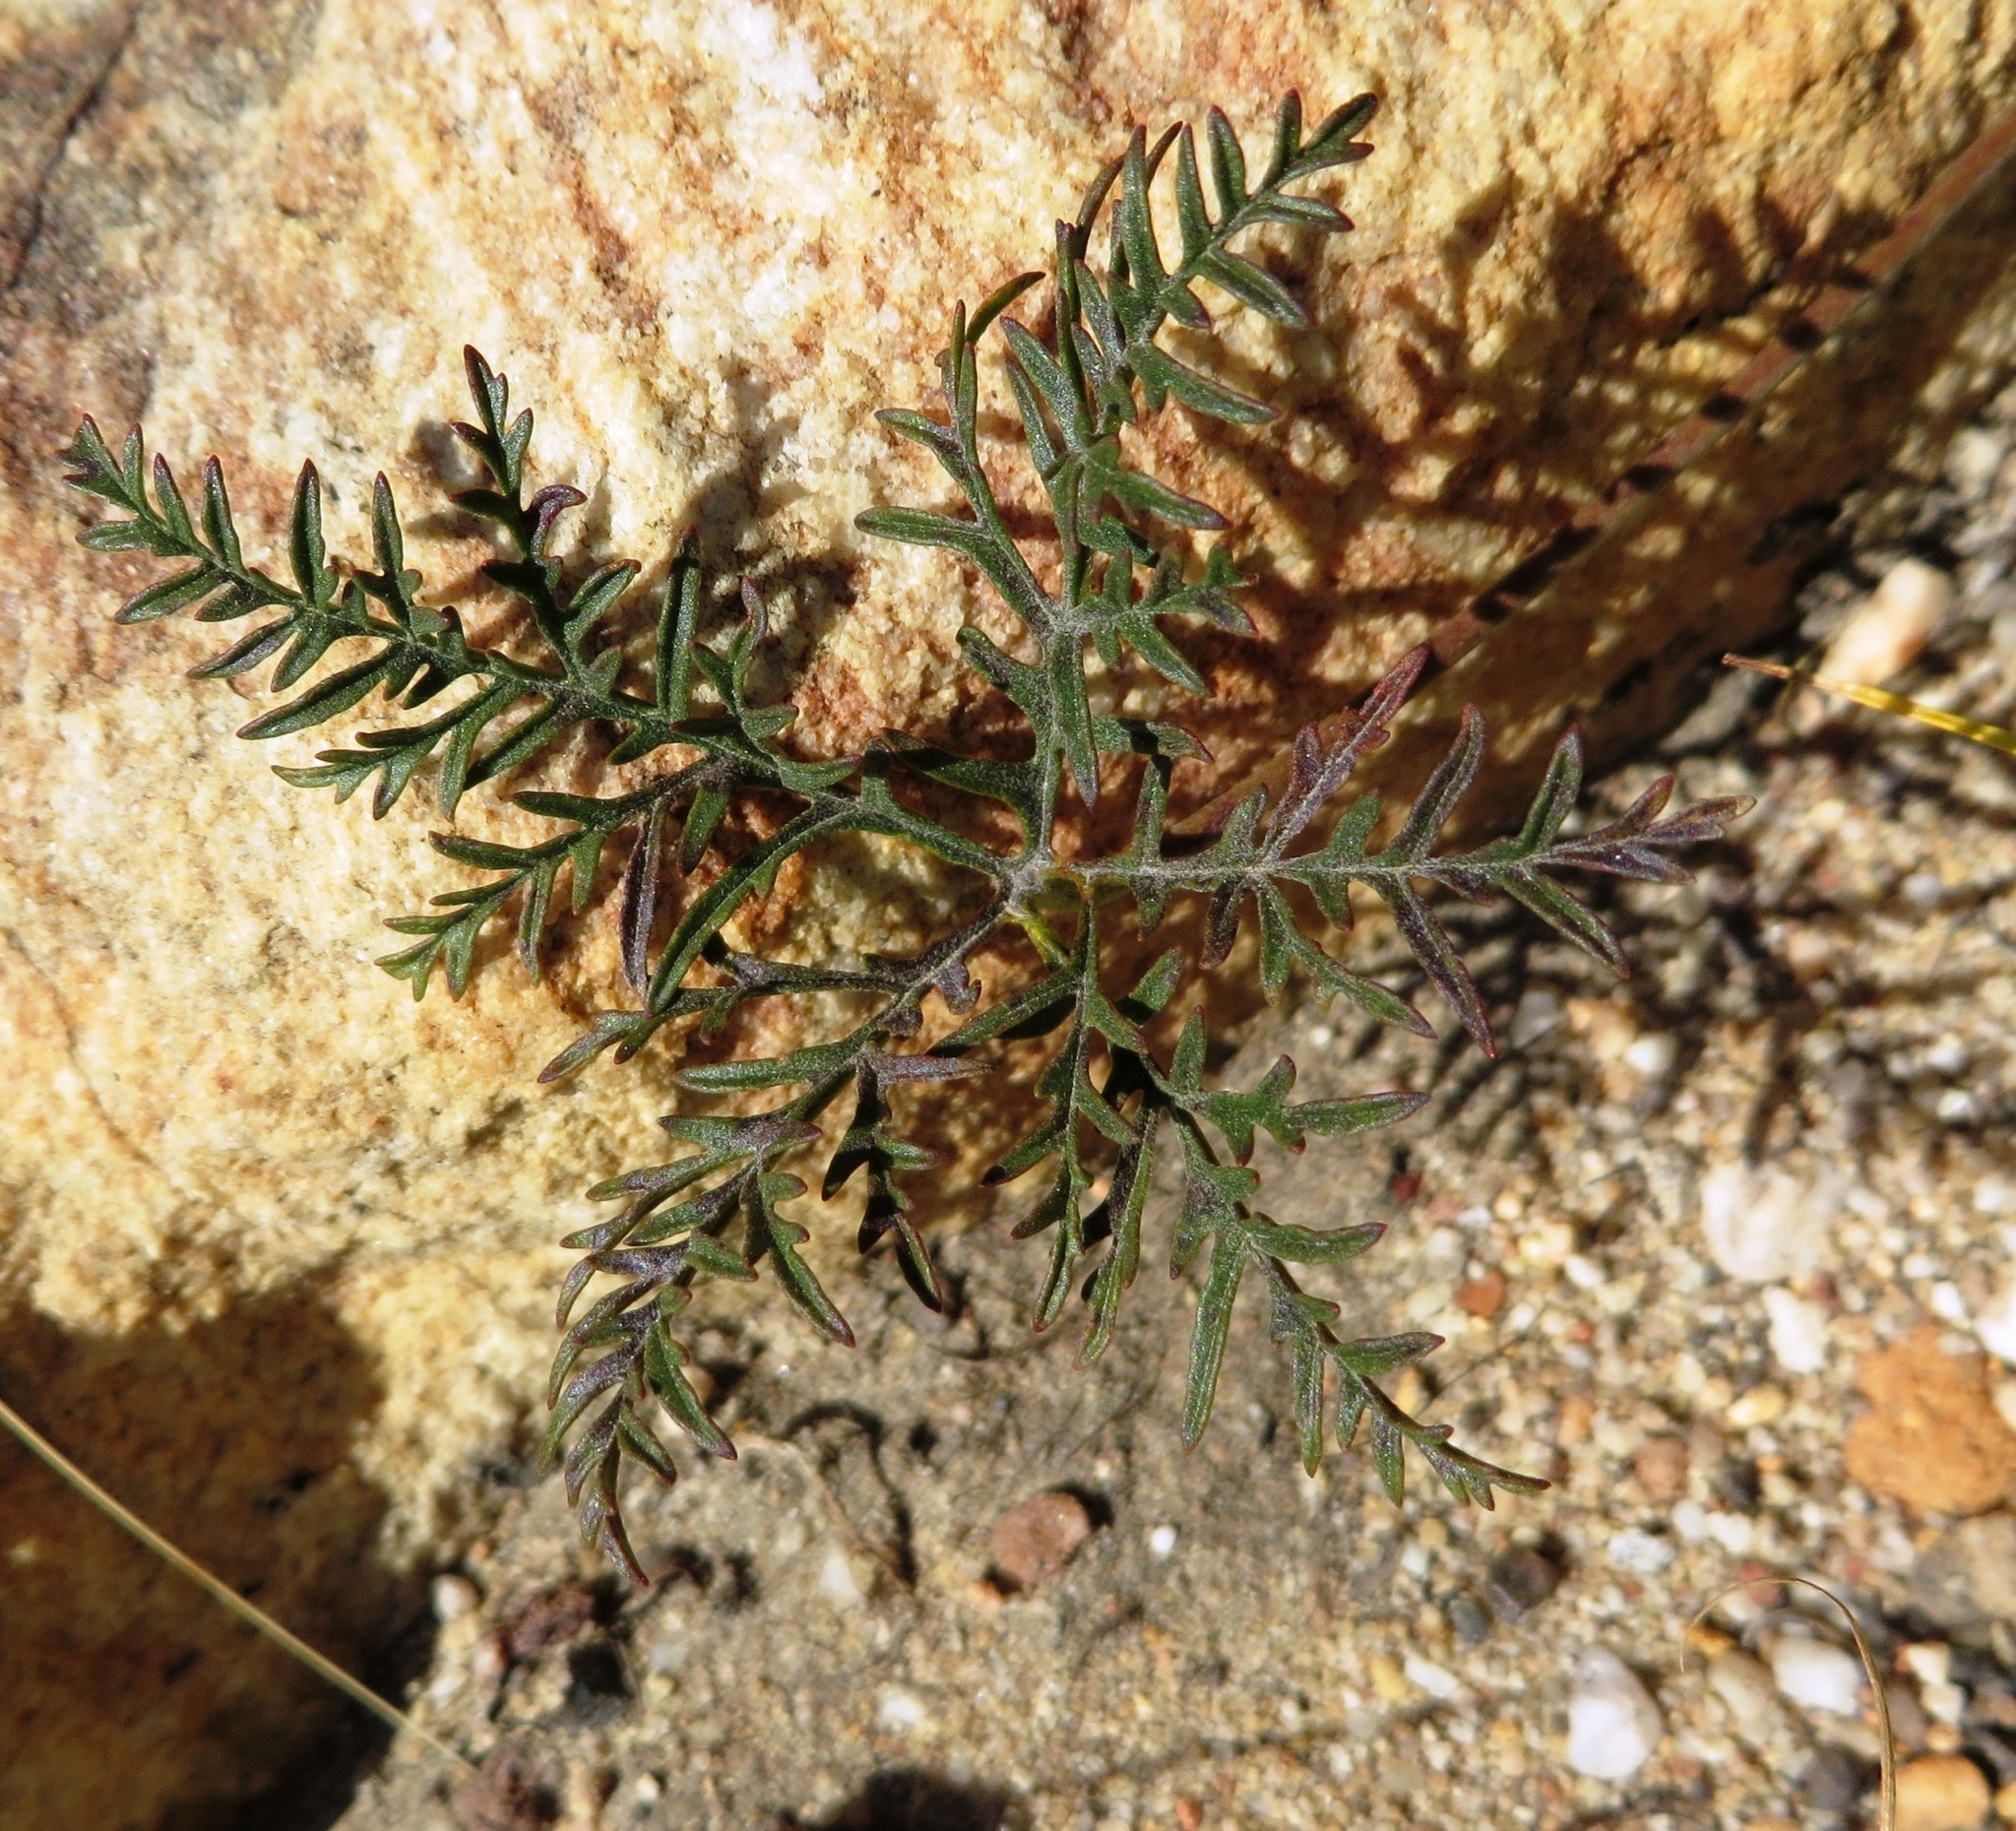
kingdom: Plantae
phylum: Tracheophyta
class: Magnoliopsida
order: Geraniales
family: Geraniaceae
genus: Monsonia
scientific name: Monsonia speciosa
